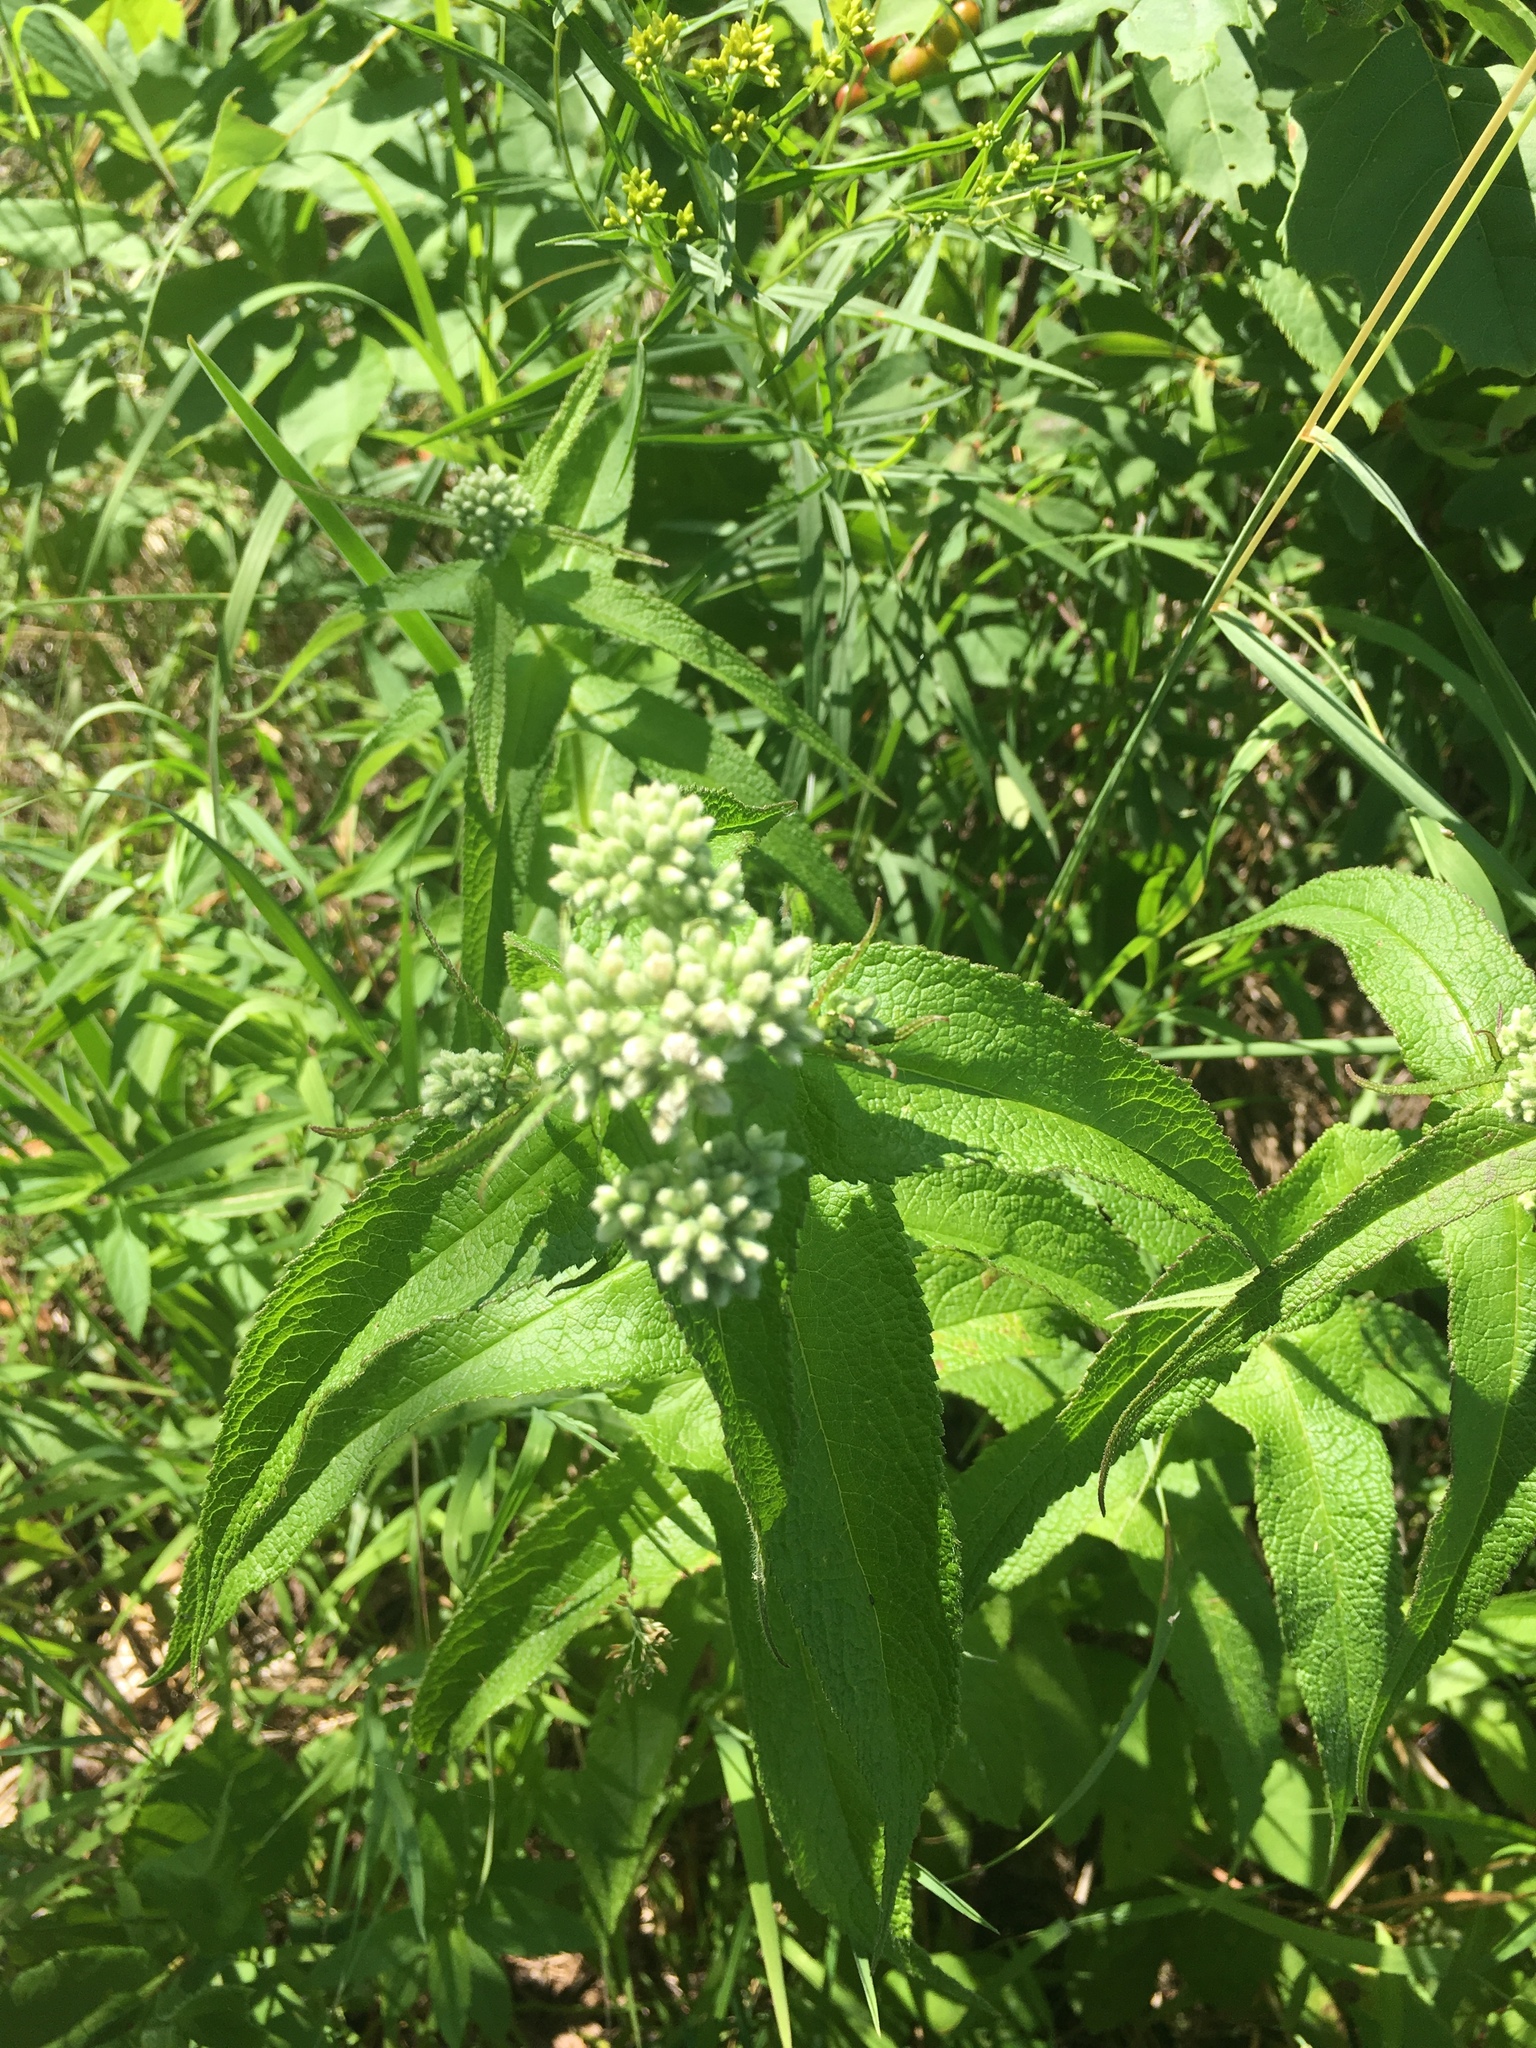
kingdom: Plantae
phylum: Tracheophyta
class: Magnoliopsida
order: Asterales
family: Asteraceae
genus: Eupatorium
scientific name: Eupatorium perfoliatum
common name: Boneset
